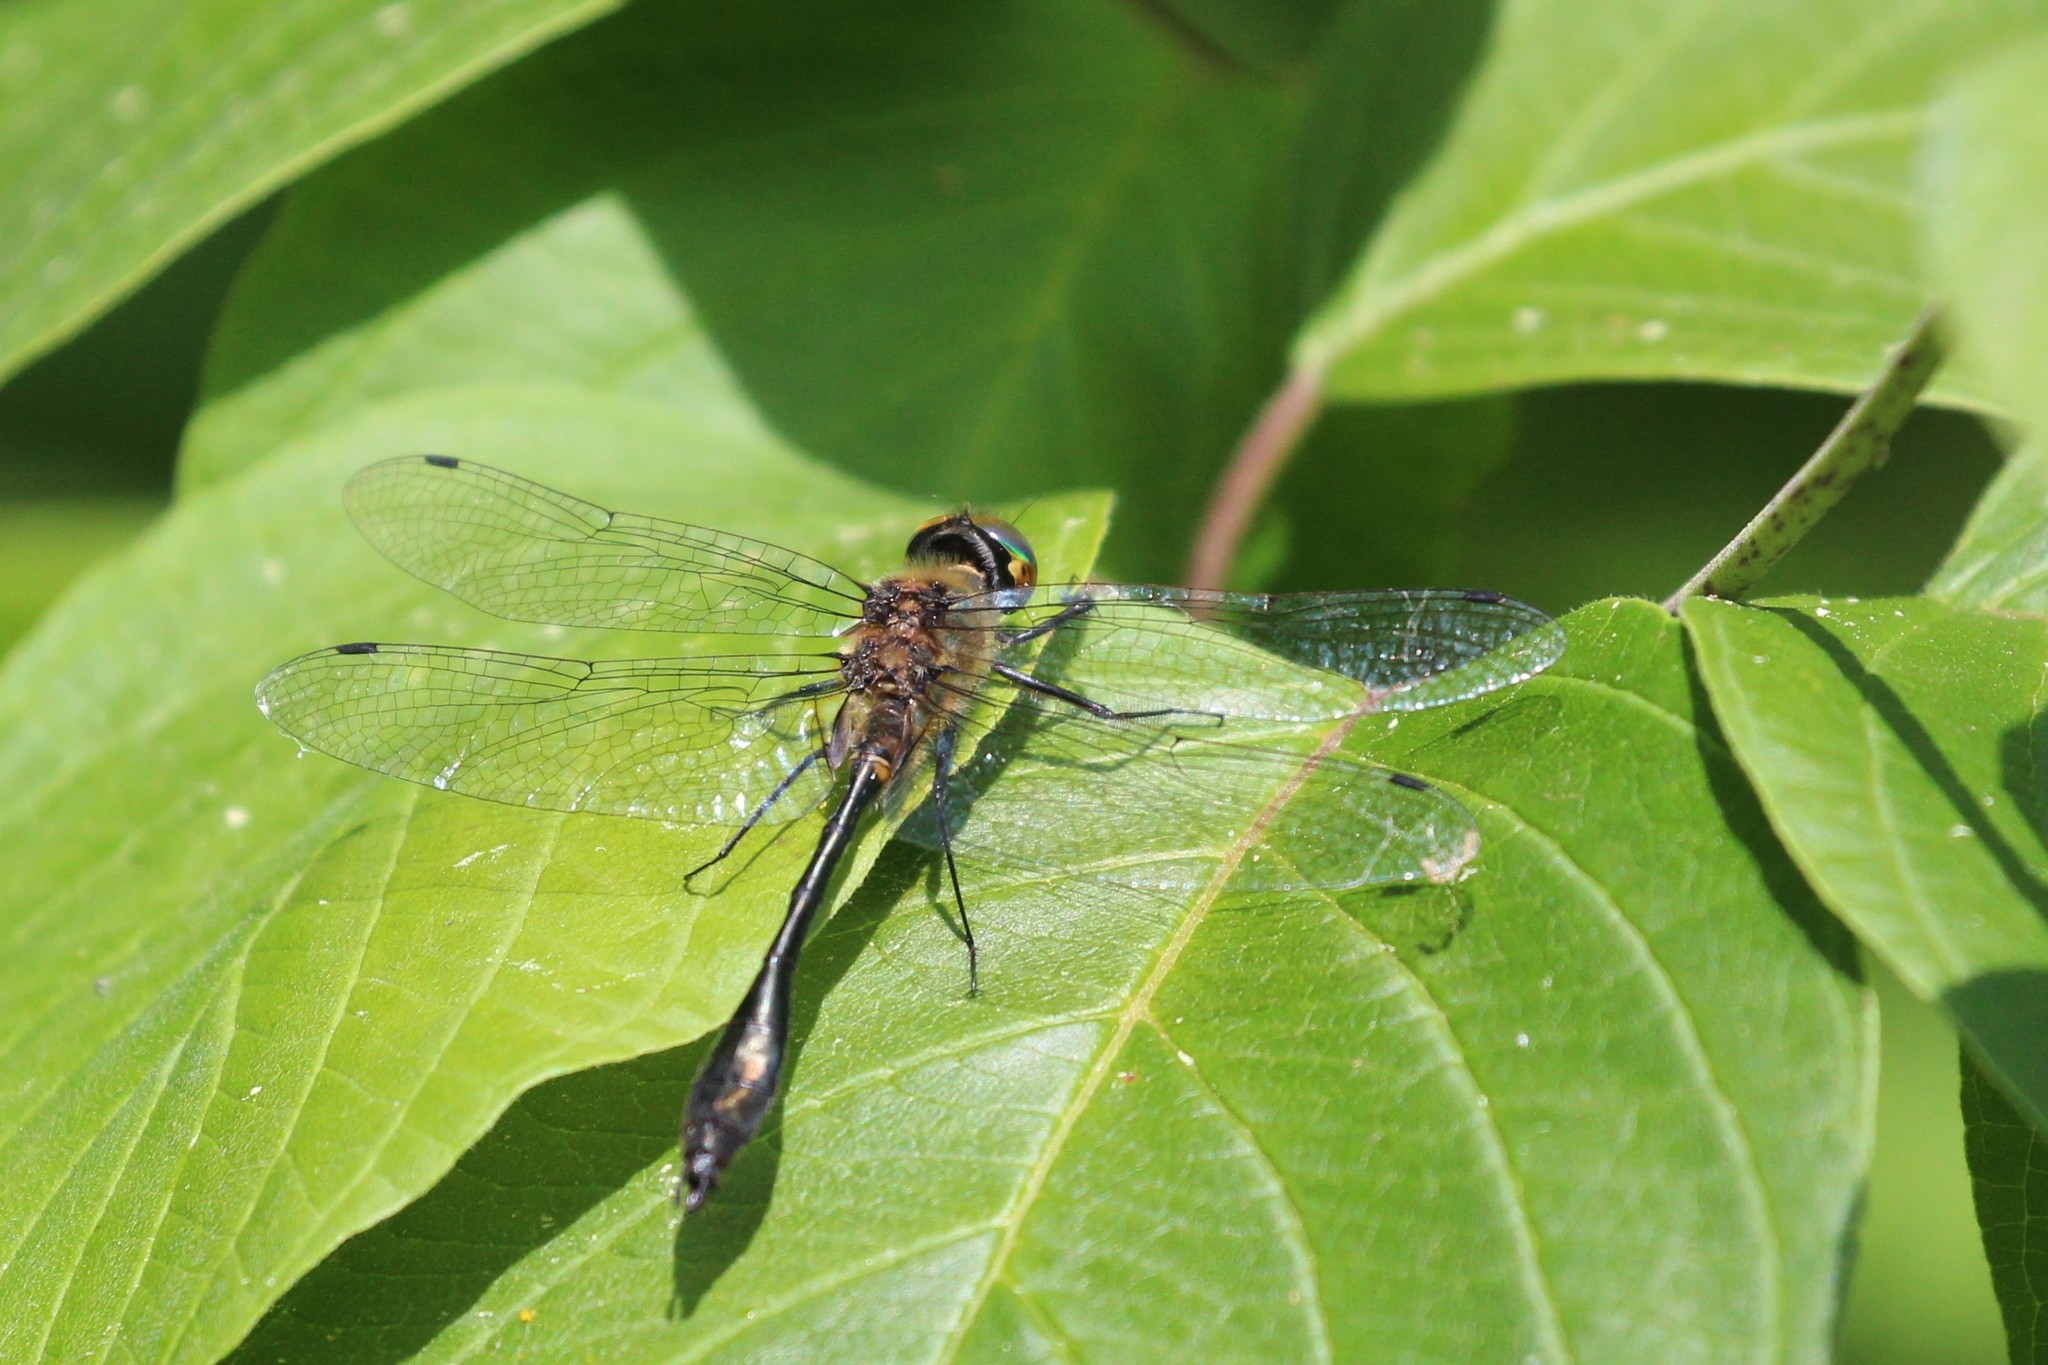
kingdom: Animalia
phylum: Arthropoda
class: Insecta
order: Odonata
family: Corduliidae
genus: Dorocordulia
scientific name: Dorocordulia libera
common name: Racket-tailed emerald
